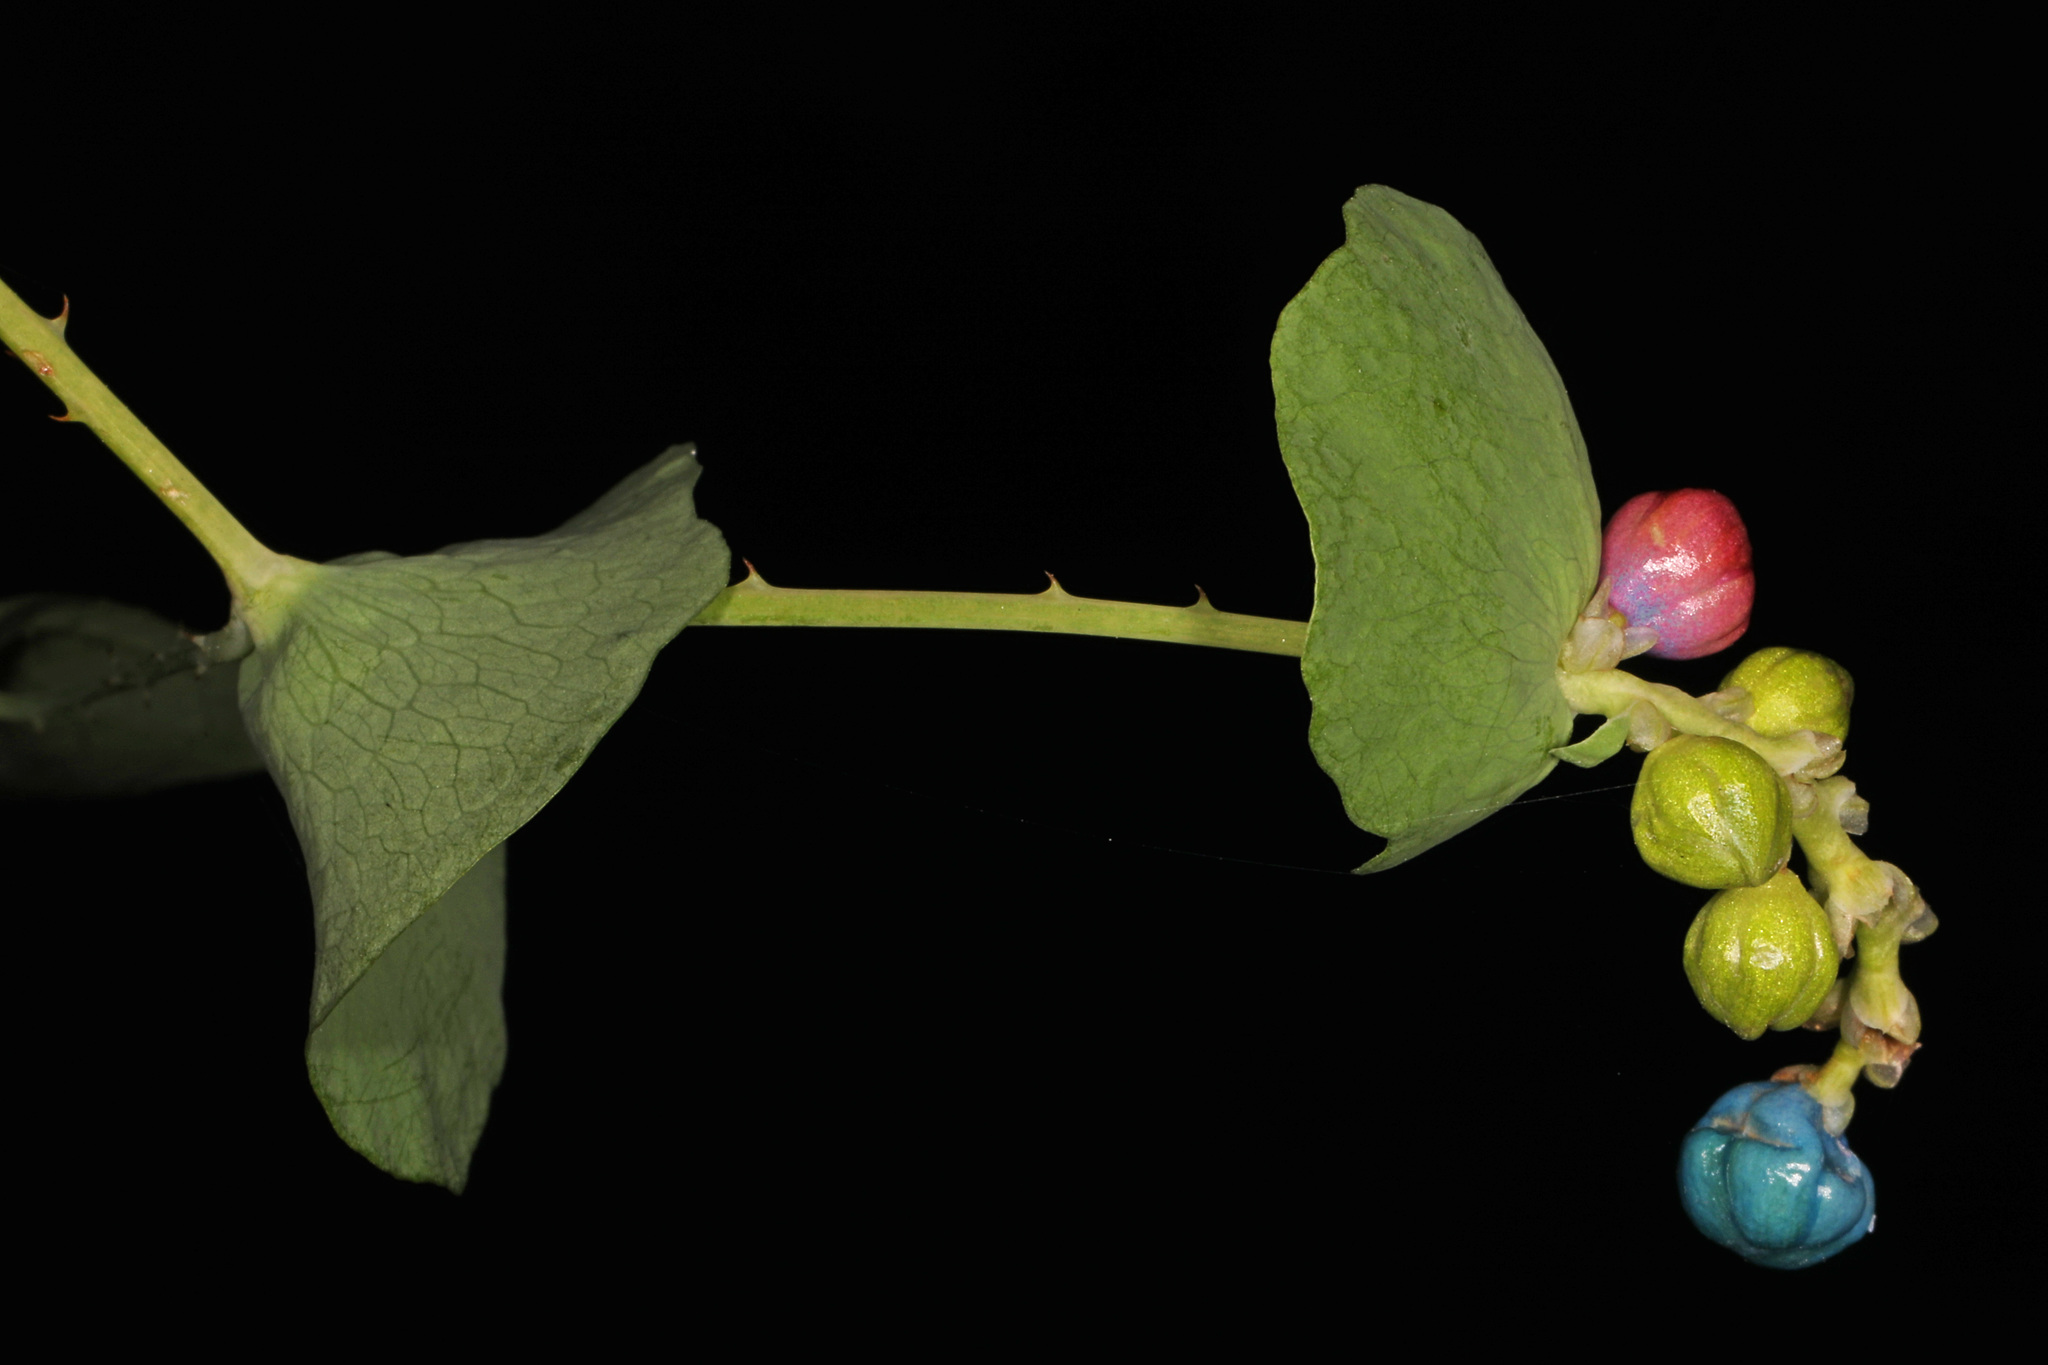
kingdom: Plantae
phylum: Tracheophyta
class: Magnoliopsida
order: Caryophyllales
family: Polygonaceae
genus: Persicaria
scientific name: Persicaria perfoliata
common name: Asiatic tearthumb
